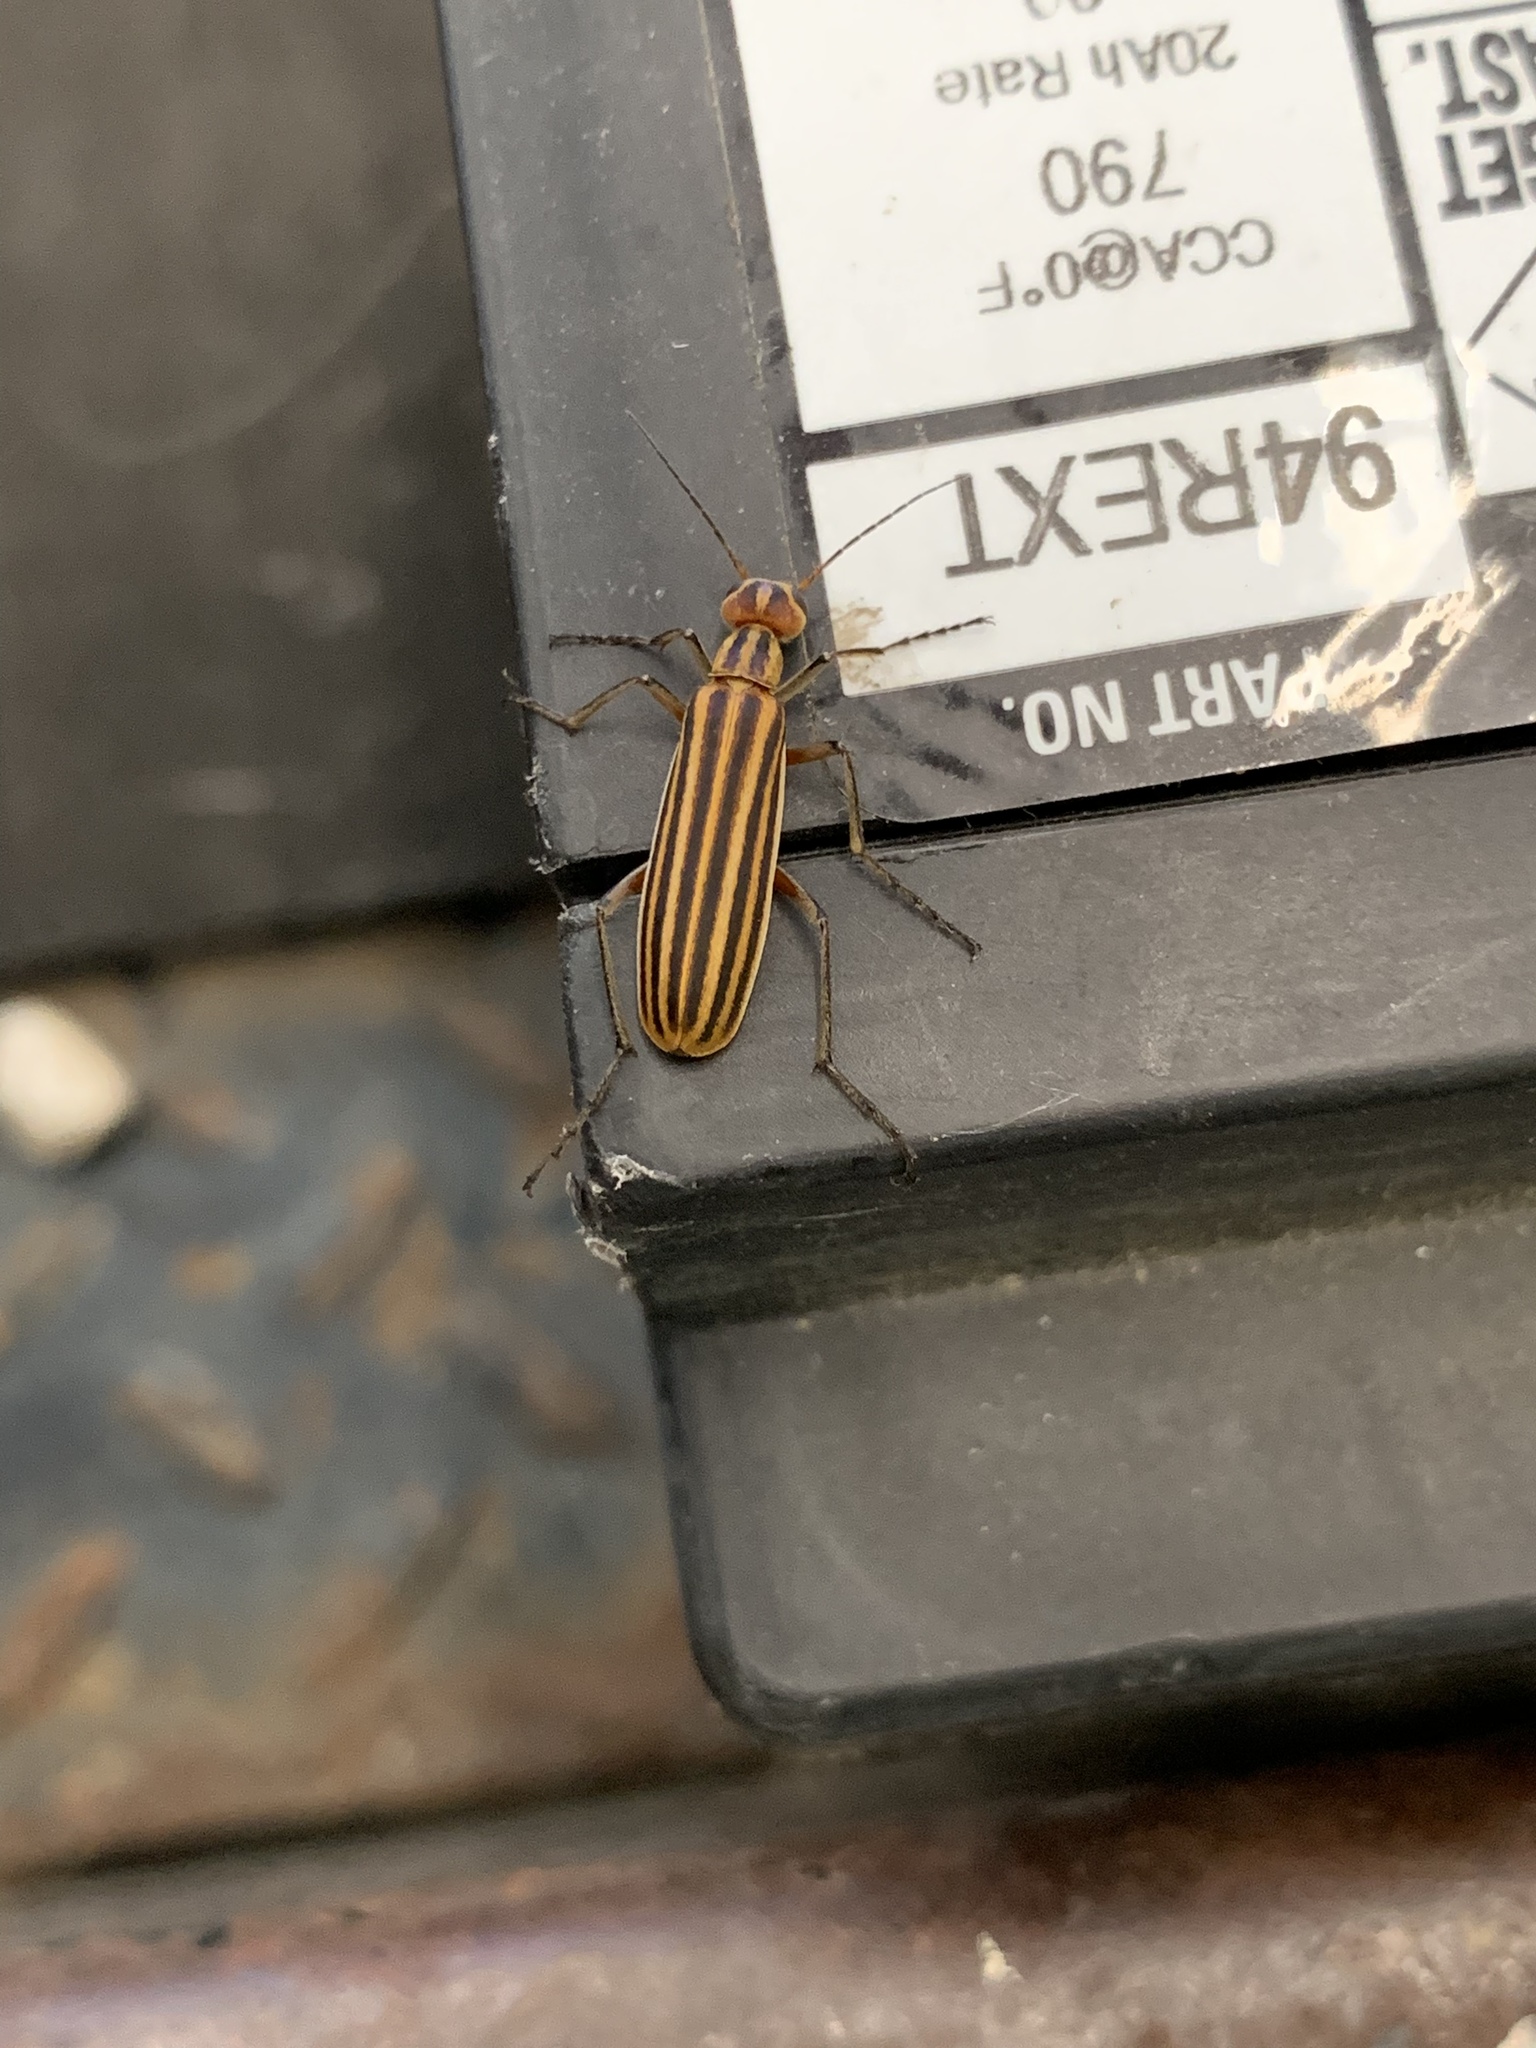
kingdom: Animalia
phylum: Arthropoda
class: Insecta
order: Coleoptera
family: Meloidae
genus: Epicauta
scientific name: Epicauta vittata
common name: Old-fashioned potato beetle
